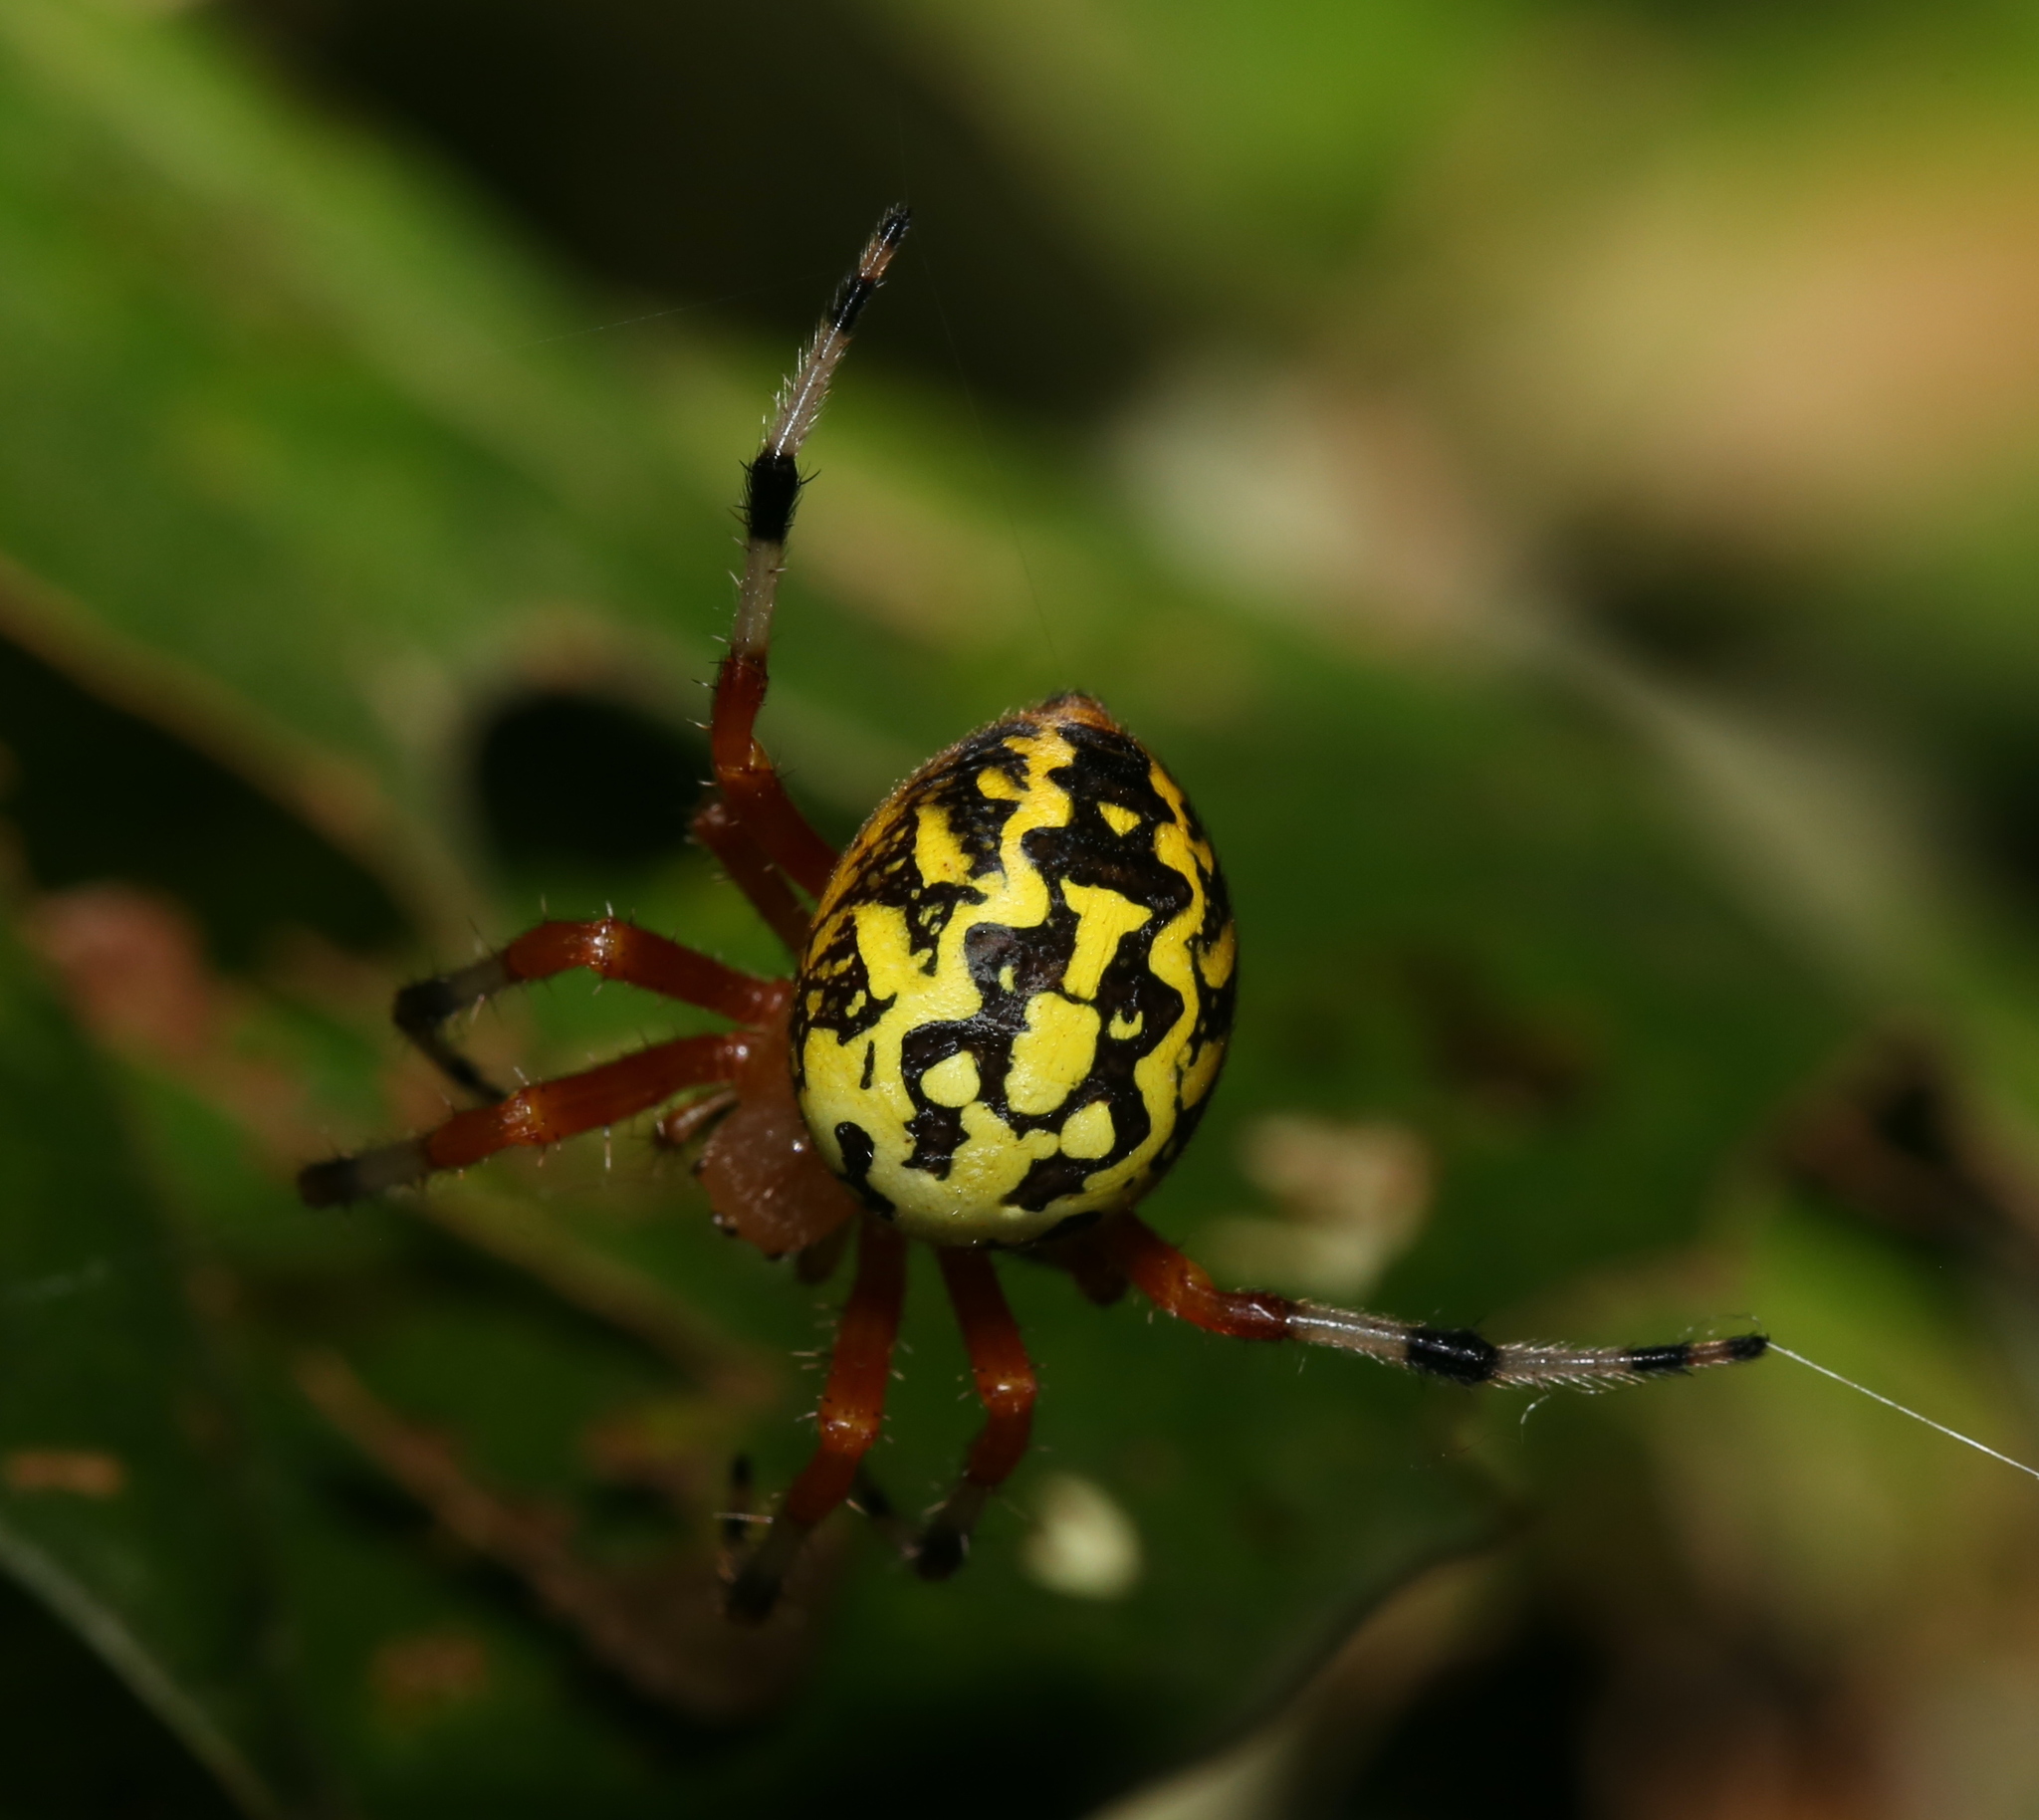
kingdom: Animalia
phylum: Arthropoda
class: Arachnida
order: Araneae
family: Araneidae
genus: Araneus
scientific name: Araneus marmoreus
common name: Marbled orbweaver
